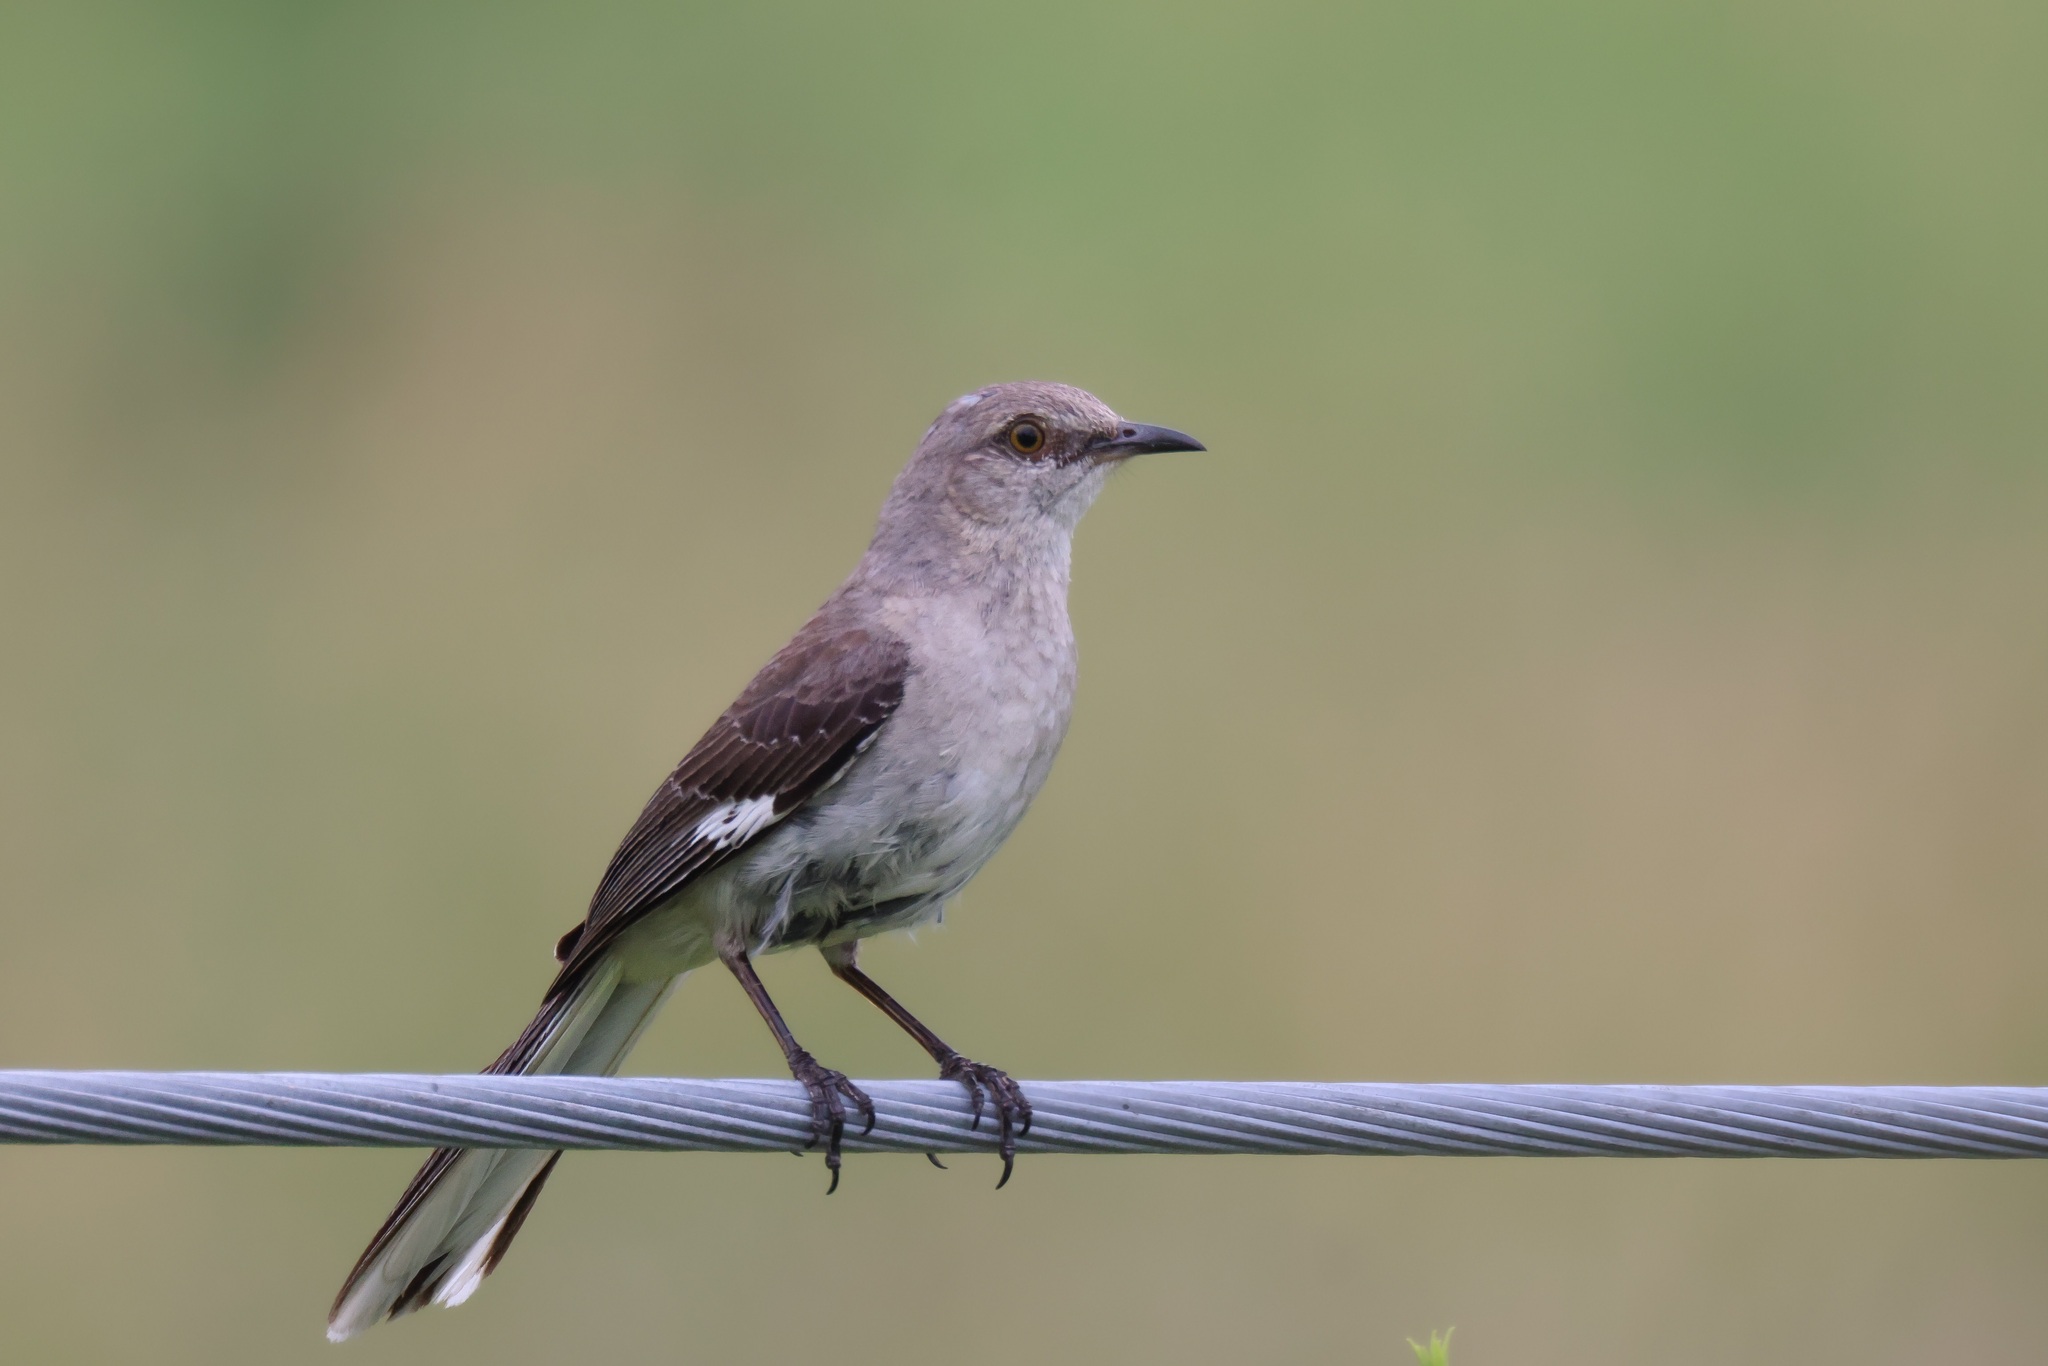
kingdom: Animalia
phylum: Chordata
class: Aves
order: Passeriformes
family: Mimidae
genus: Mimus
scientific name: Mimus polyglottos
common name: Northern mockingbird
